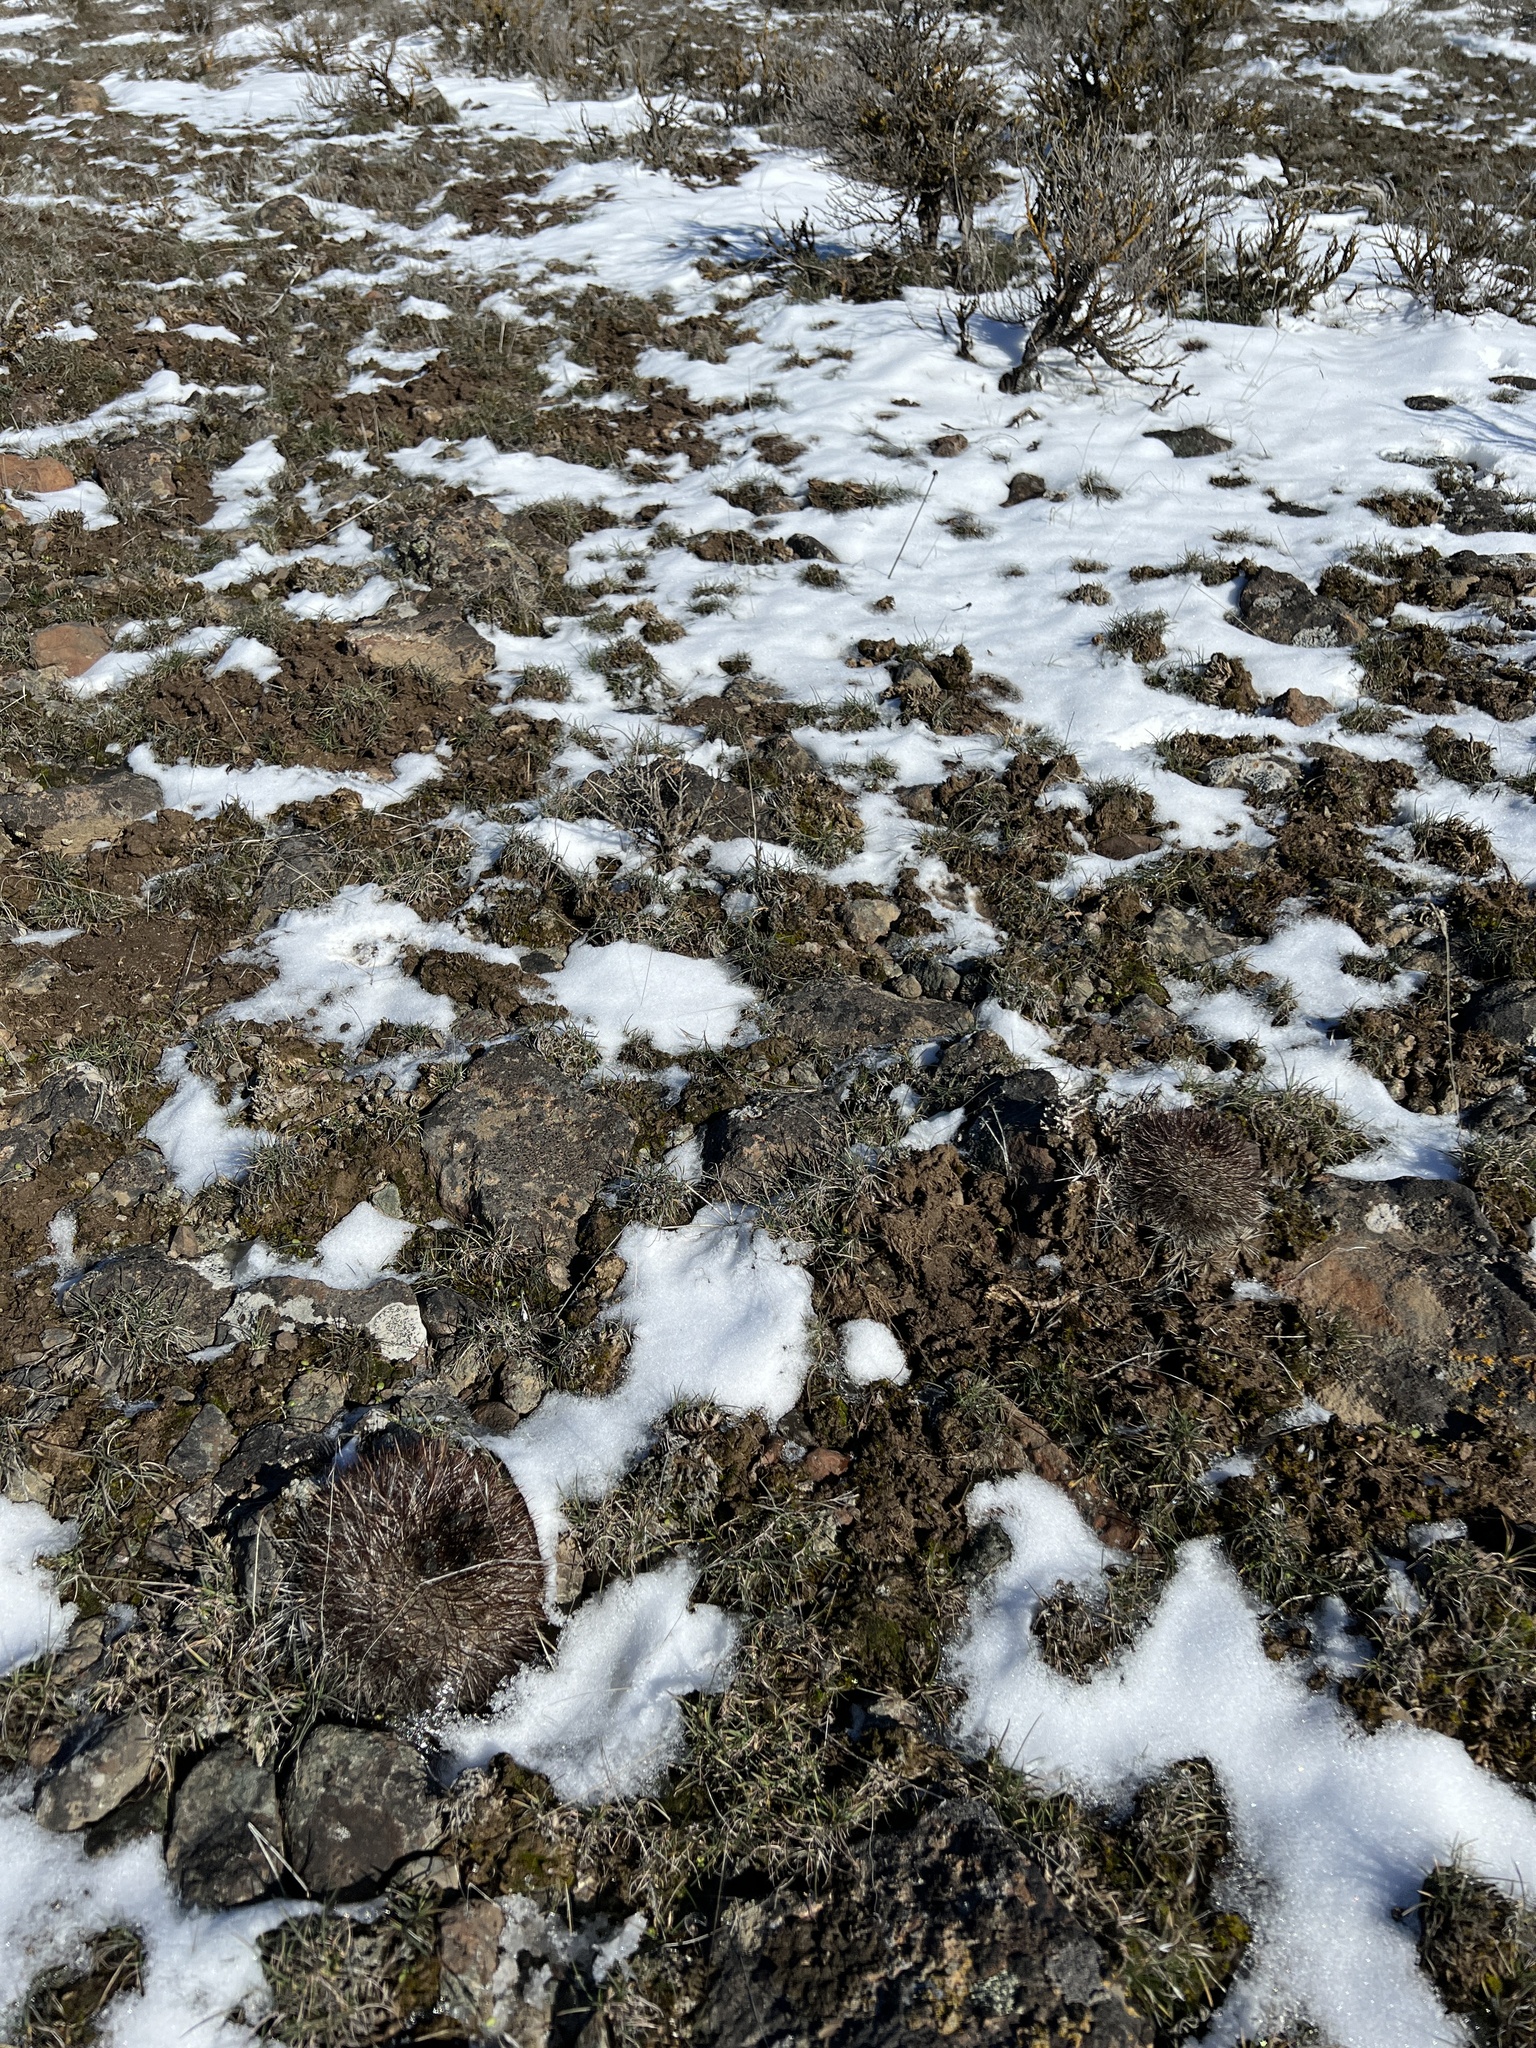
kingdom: Plantae
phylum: Tracheophyta
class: Magnoliopsida
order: Caryophyllales
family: Cactaceae
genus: Pediocactus
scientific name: Pediocactus nigrispinus
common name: Simpson's hedgehog cactus
